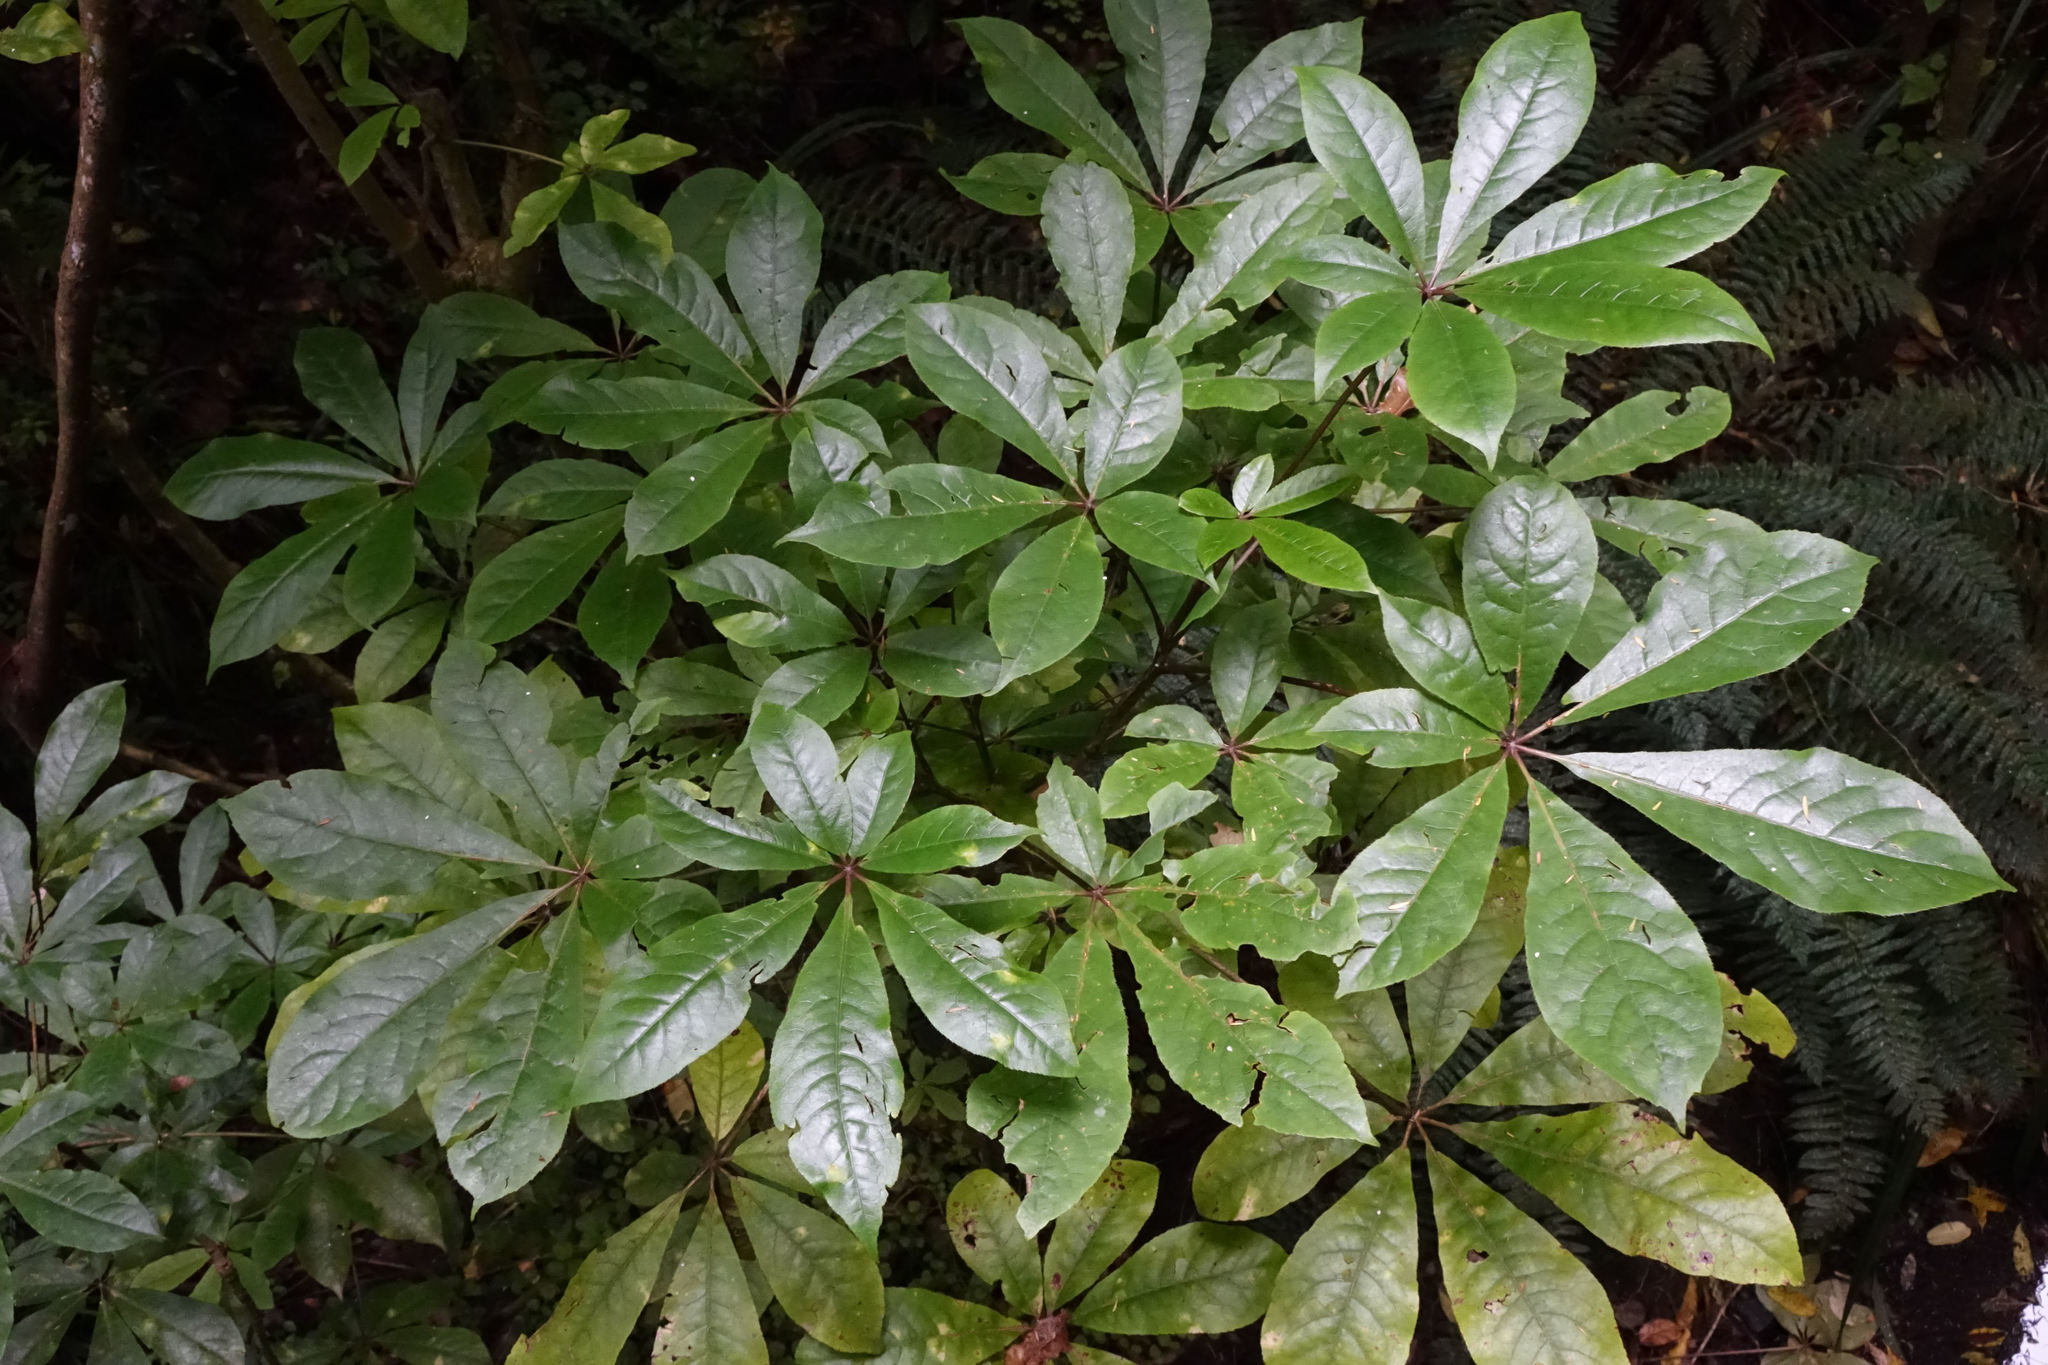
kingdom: Plantae
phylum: Tracheophyta
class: Magnoliopsida
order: Apiales
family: Araliaceae
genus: Schefflera
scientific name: Schefflera digitata
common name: Pate
